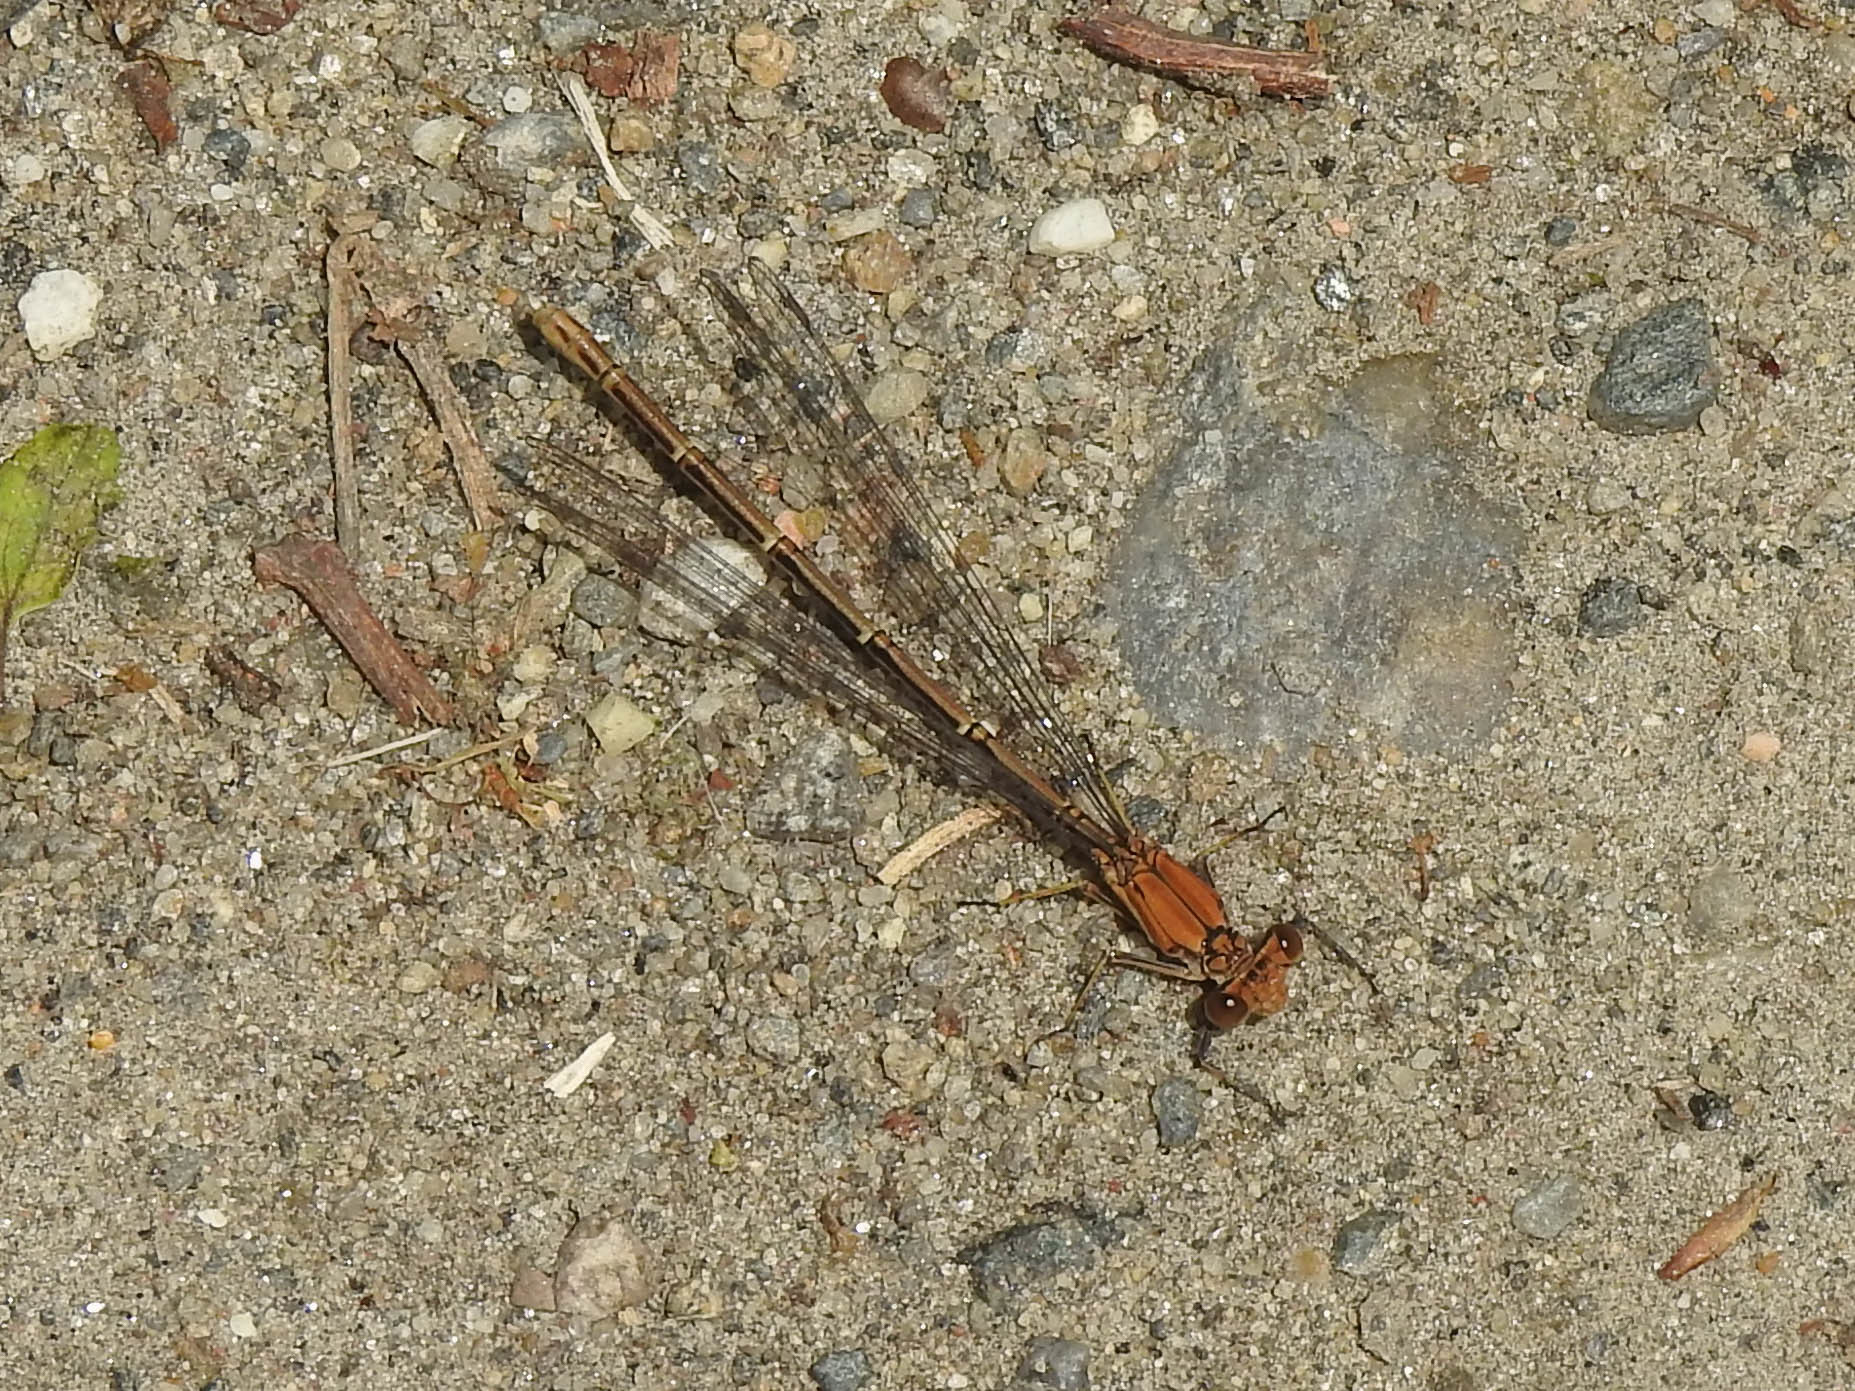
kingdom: Animalia
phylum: Arthropoda
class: Insecta
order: Odonata
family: Coenagrionidae
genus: Argia
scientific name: Argia moesta
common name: Powdered dancer
